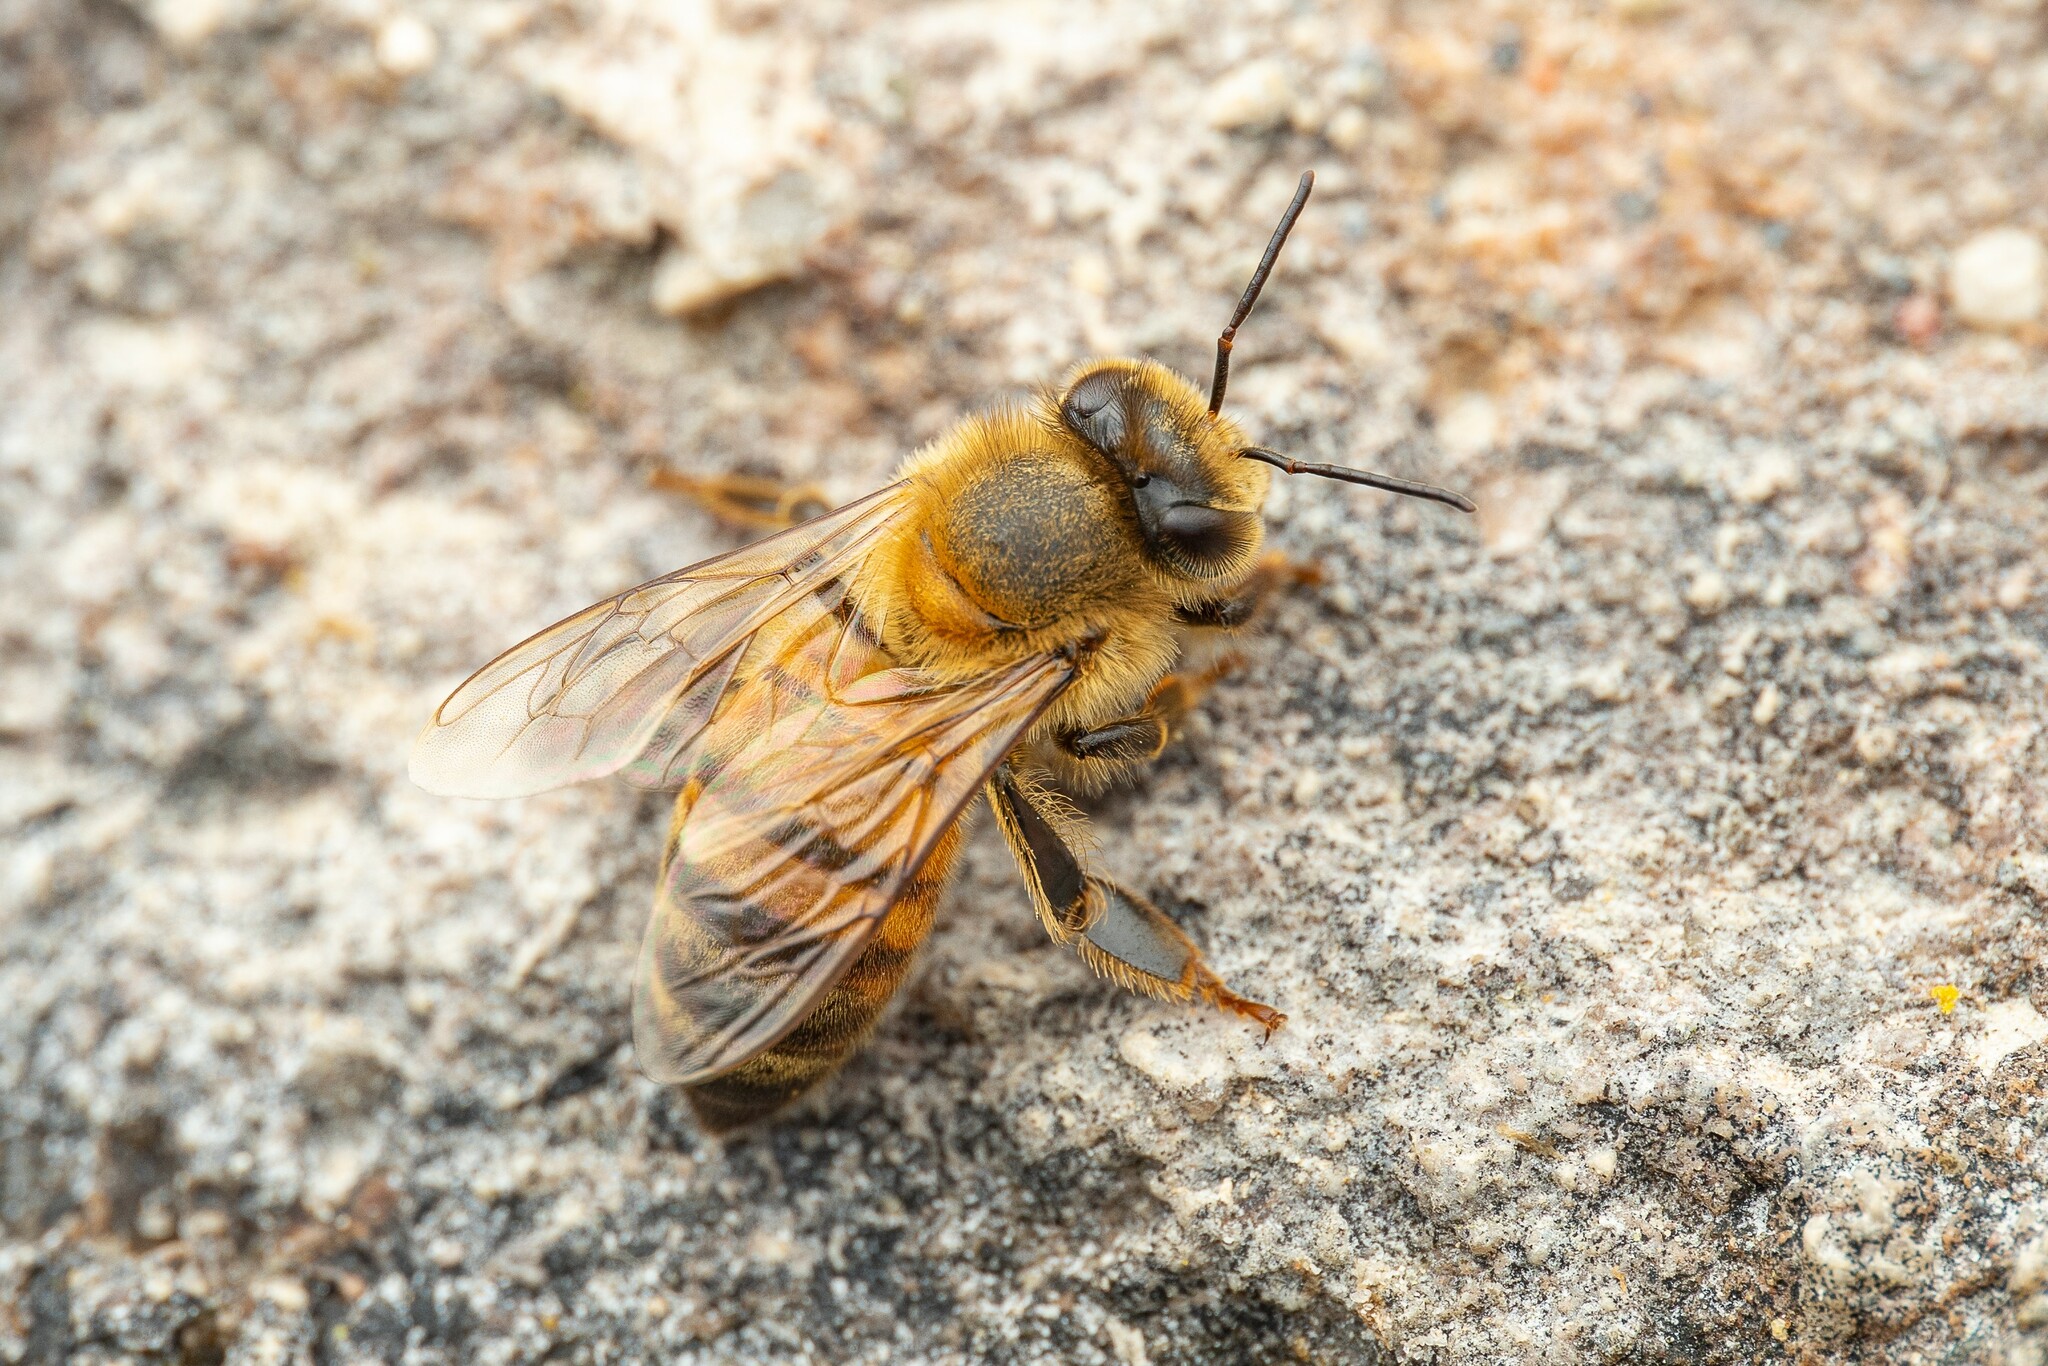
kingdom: Animalia
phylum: Arthropoda
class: Insecta
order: Hymenoptera
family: Apidae
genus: Apis
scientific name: Apis mellifera
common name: Honey bee
